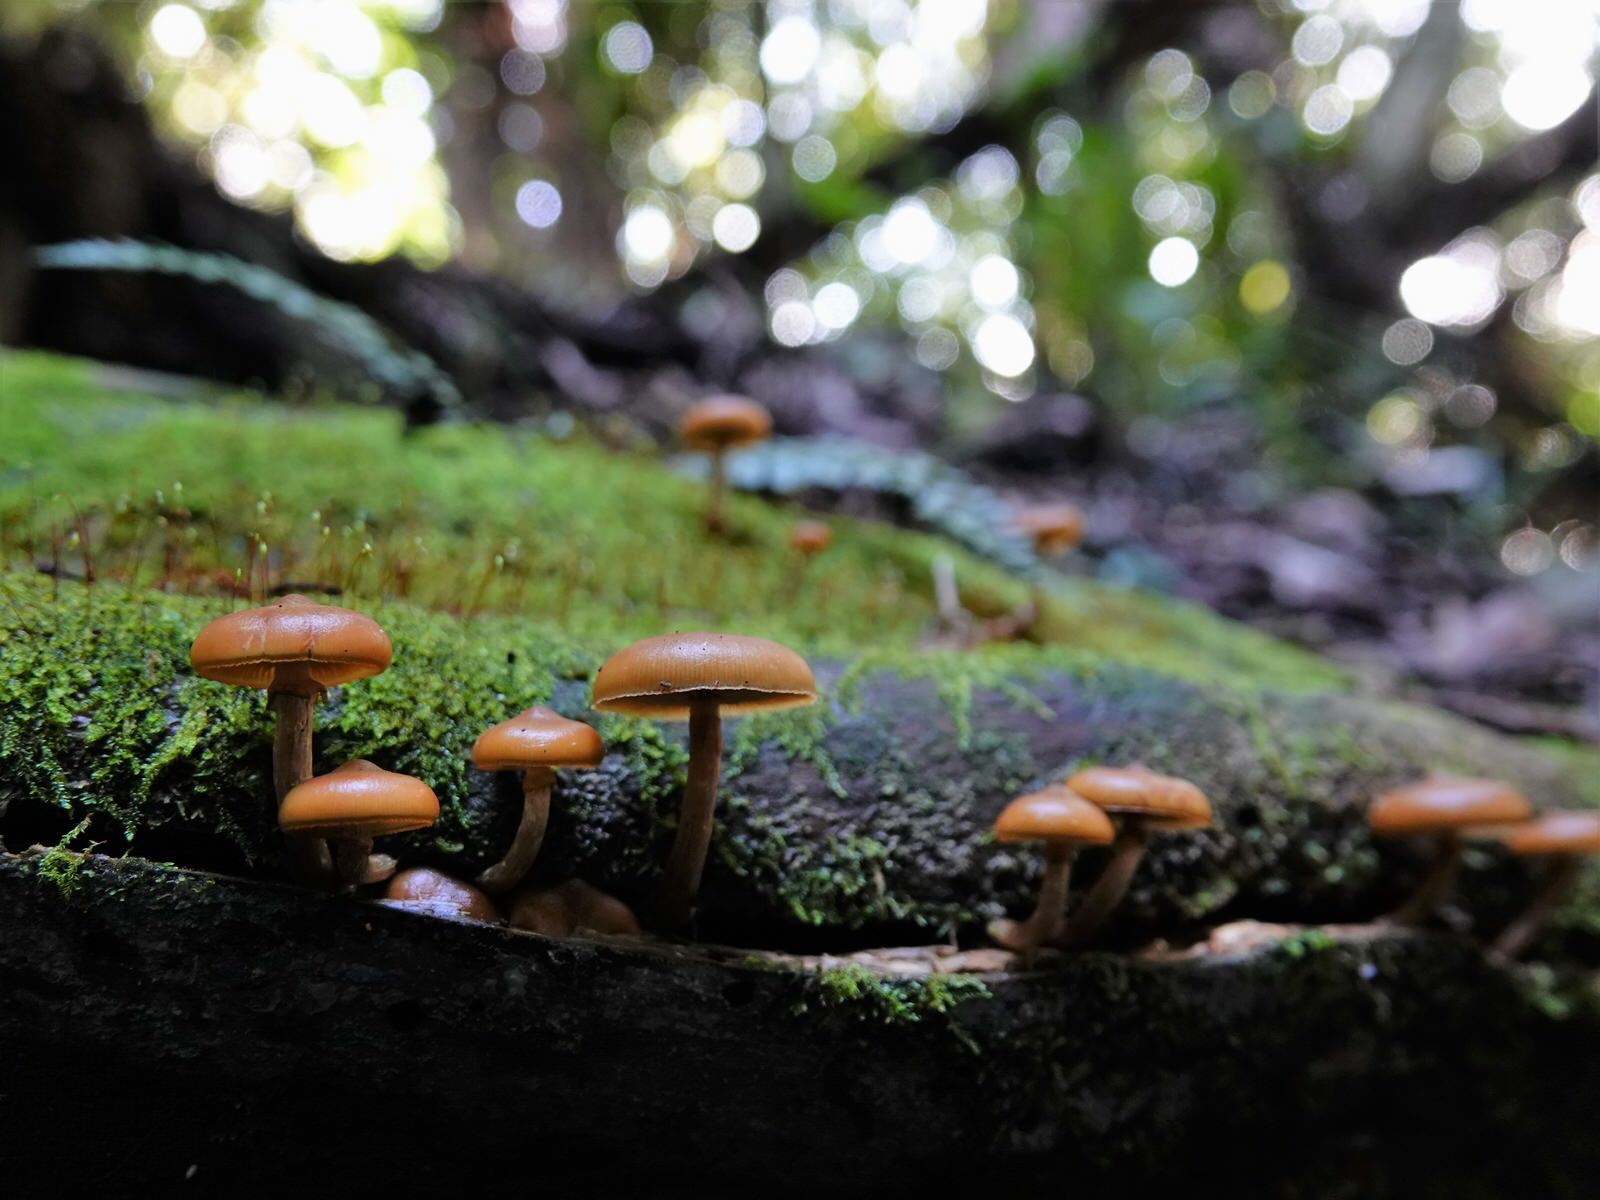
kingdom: Fungi
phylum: Basidiomycota
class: Agaricomycetes
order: Agaricales
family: Hymenogastraceae
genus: Galerina
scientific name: Galerina patagonica
